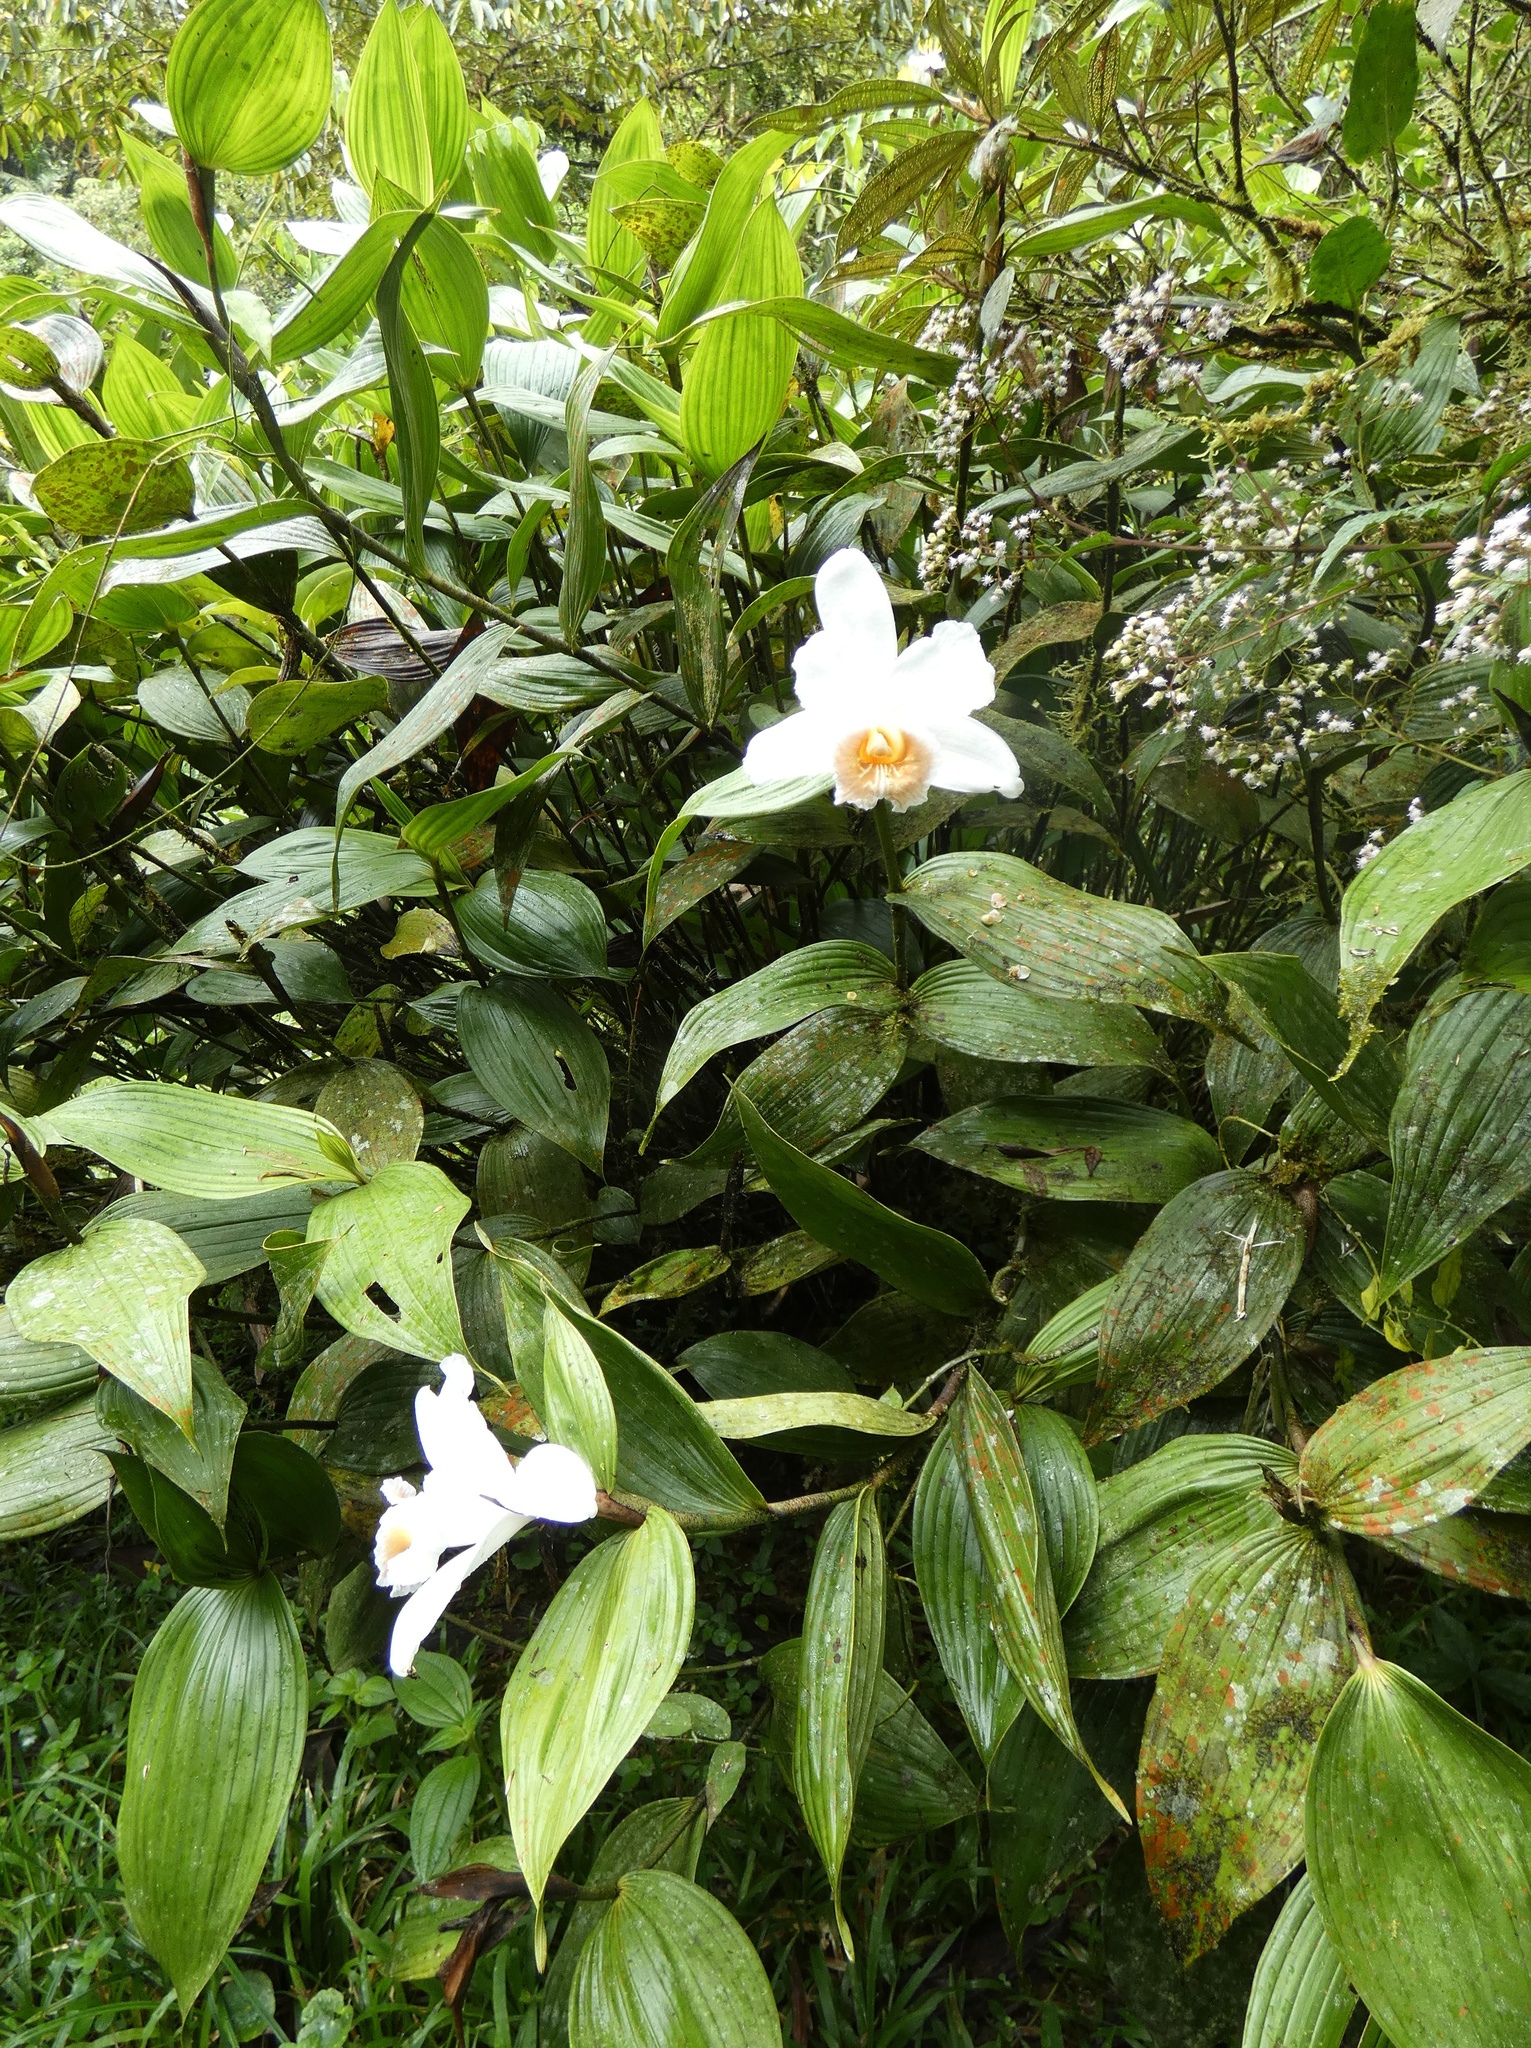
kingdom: Plantae
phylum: Tracheophyta
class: Liliopsida
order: Asparagales
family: Orchidaceae
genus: Sobralia
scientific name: Sobralia chrysostoma
